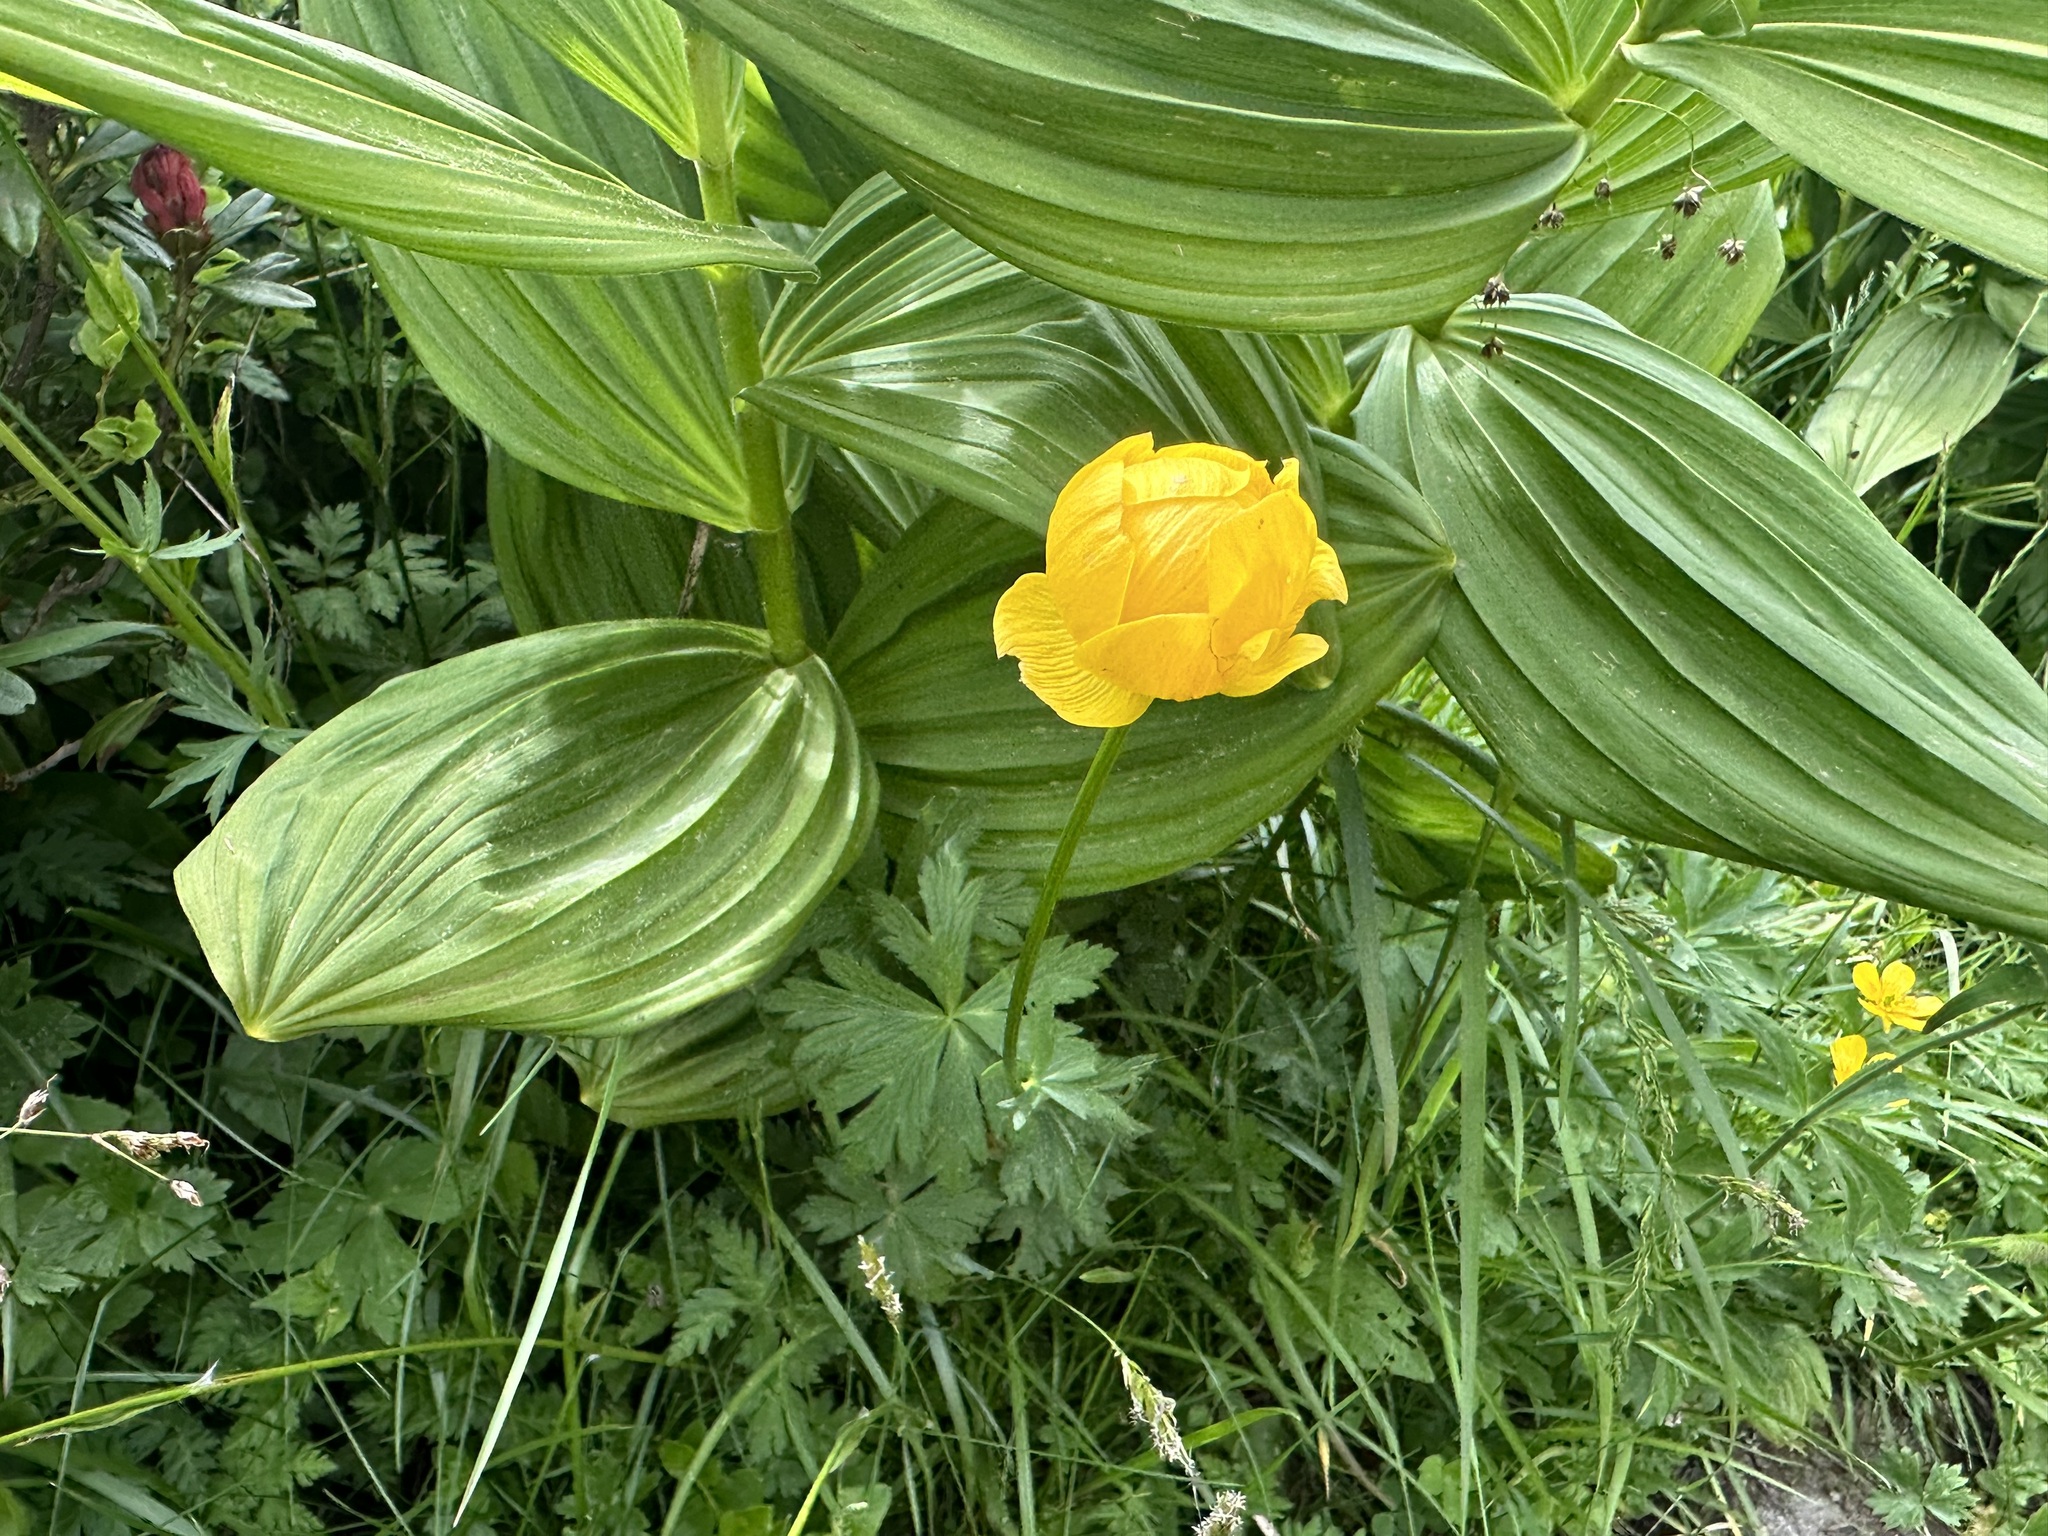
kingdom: Plantae
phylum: Tracheophyta
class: Magnoliopsida
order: Ranunculales
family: Ranunculaceae
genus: Trollius
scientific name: Trollius europaeus
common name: European globeflower
